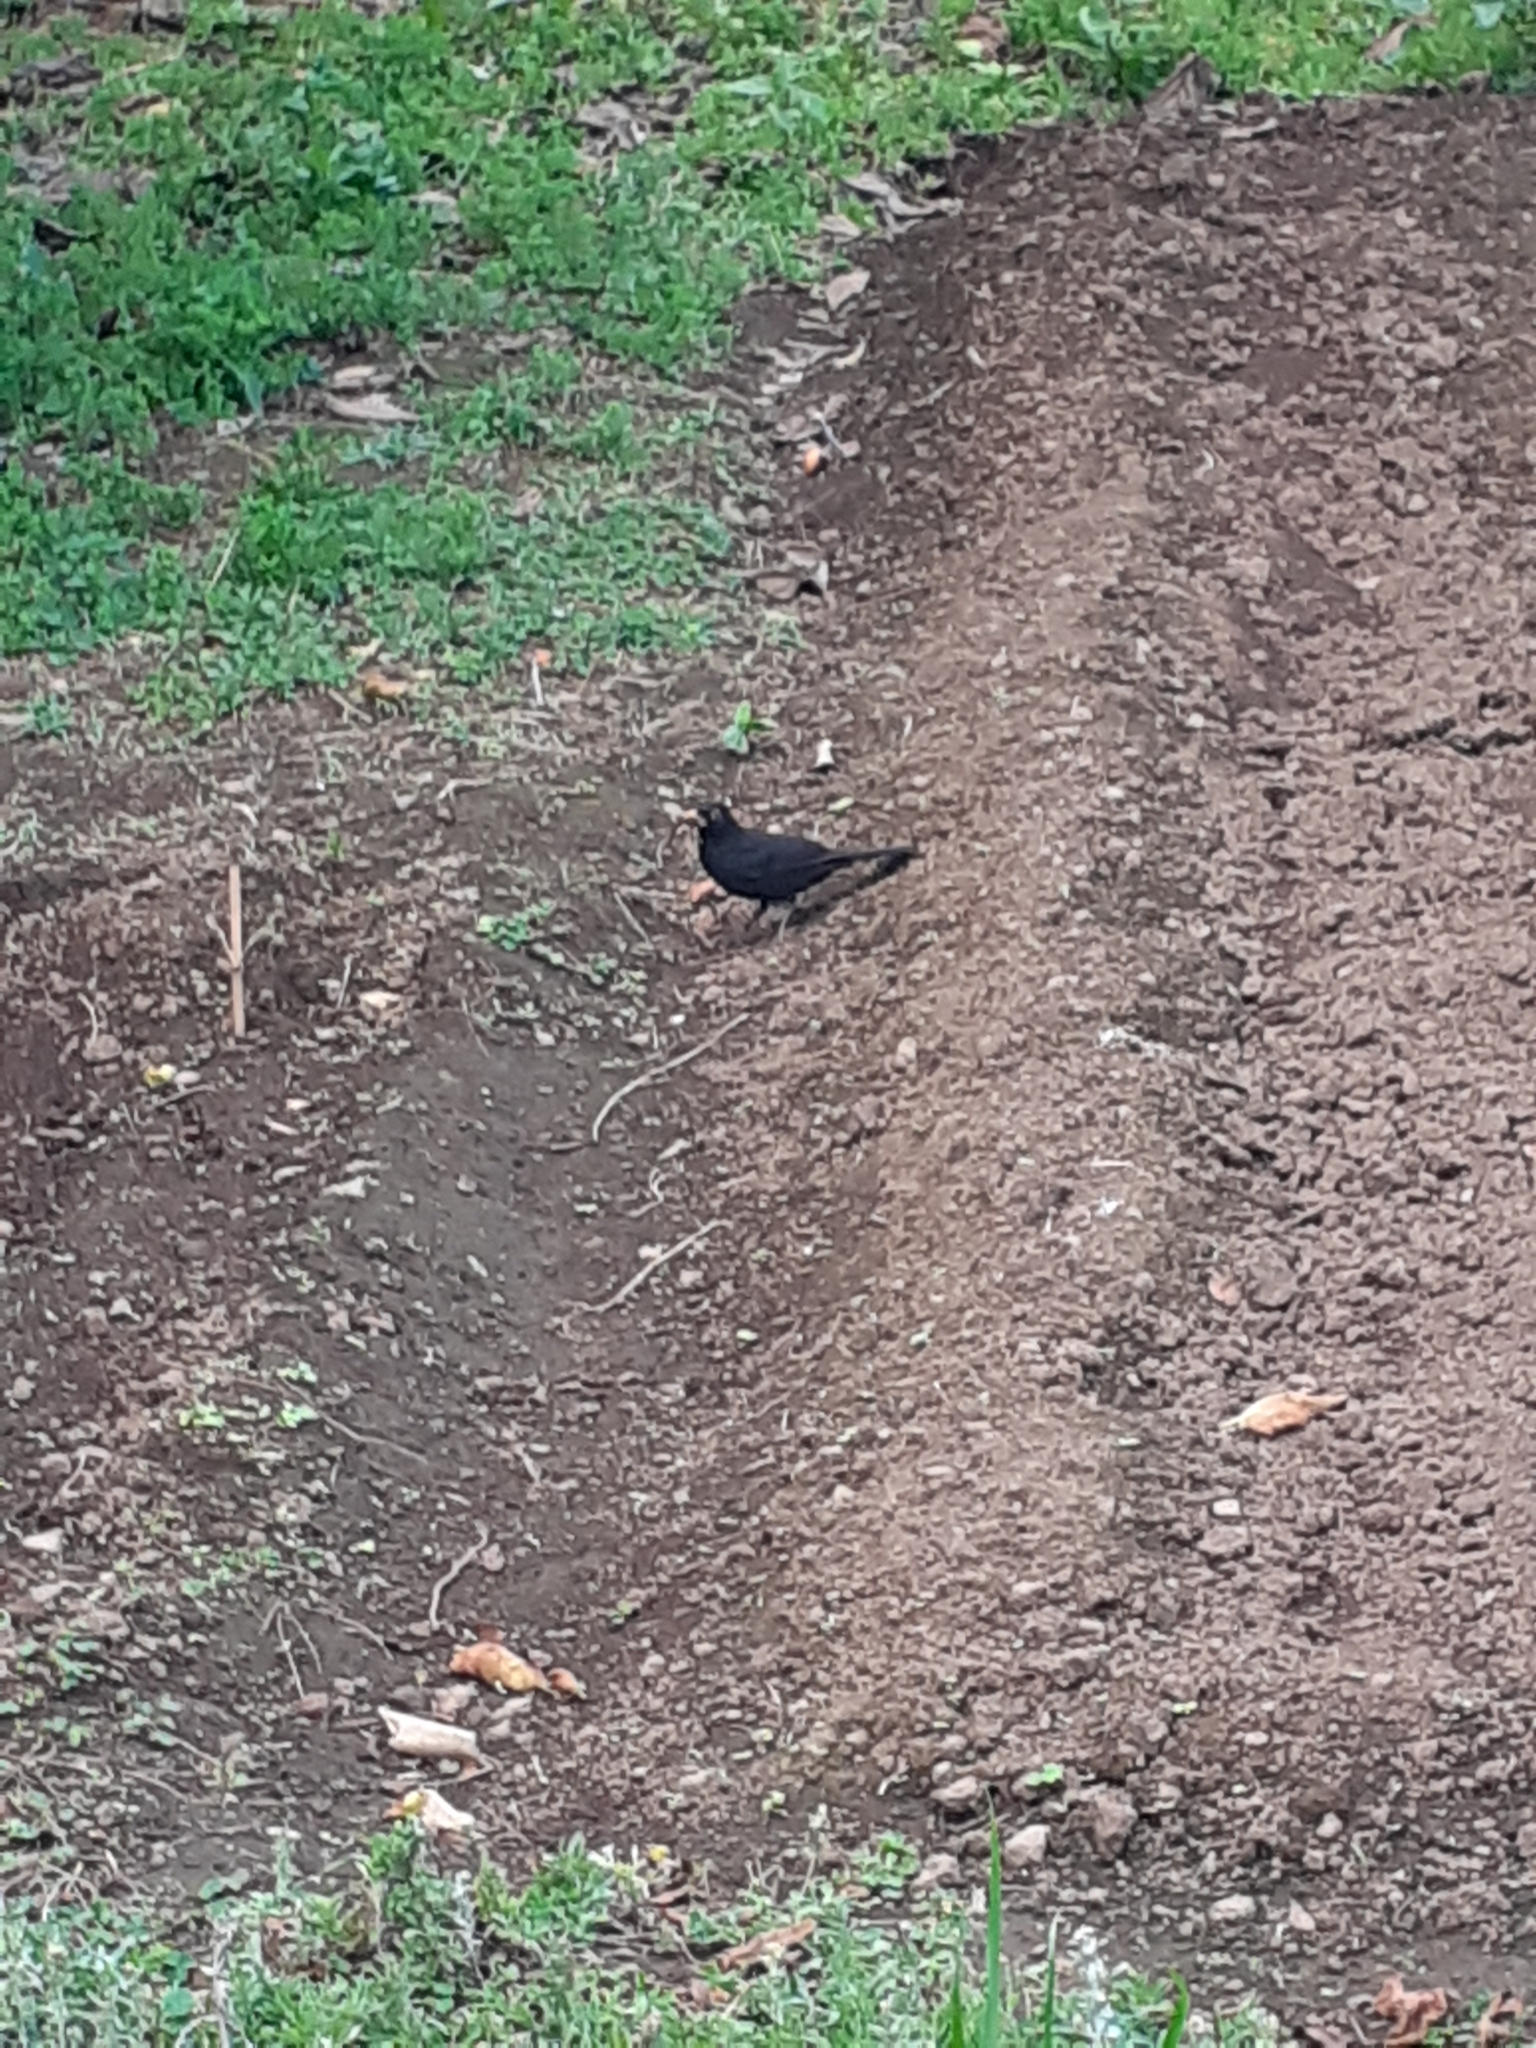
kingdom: Animalia
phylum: Chordata
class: Aves
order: Passeriformes
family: Turdidae
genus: Turdus
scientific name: Turdus merula
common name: Common blackbird
